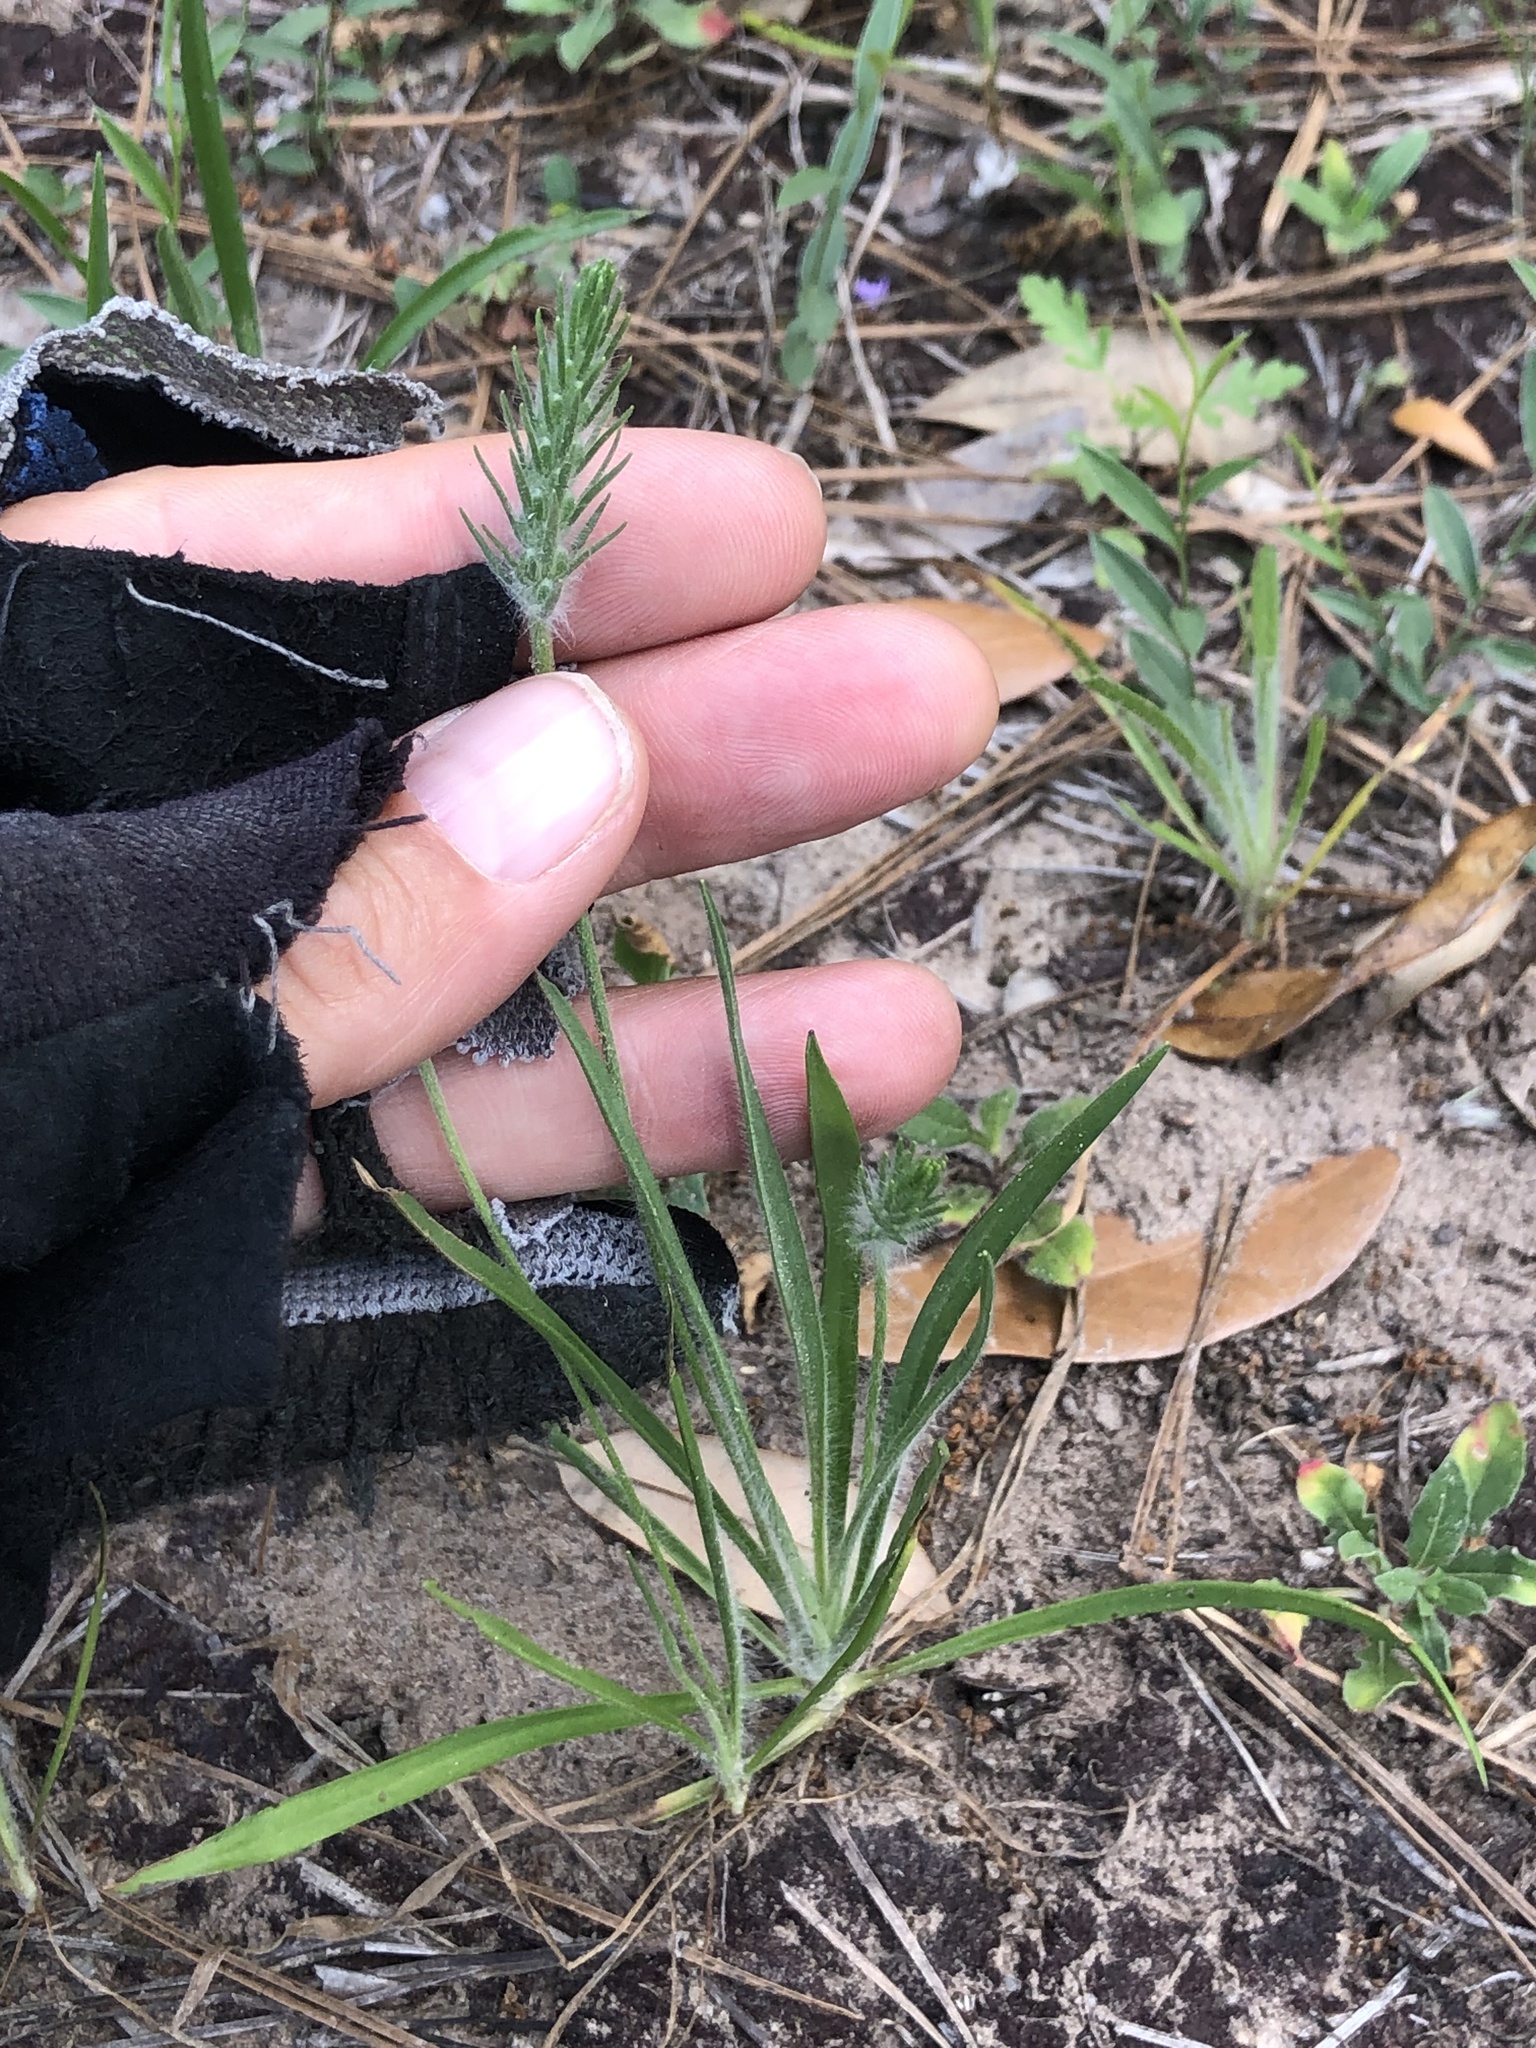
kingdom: Plantae
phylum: Tracheophyta
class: Magnoliopsida
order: Lamiales
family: Plantaginaceae
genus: Plantago
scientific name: Plantago aristata
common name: Bracted plantain
